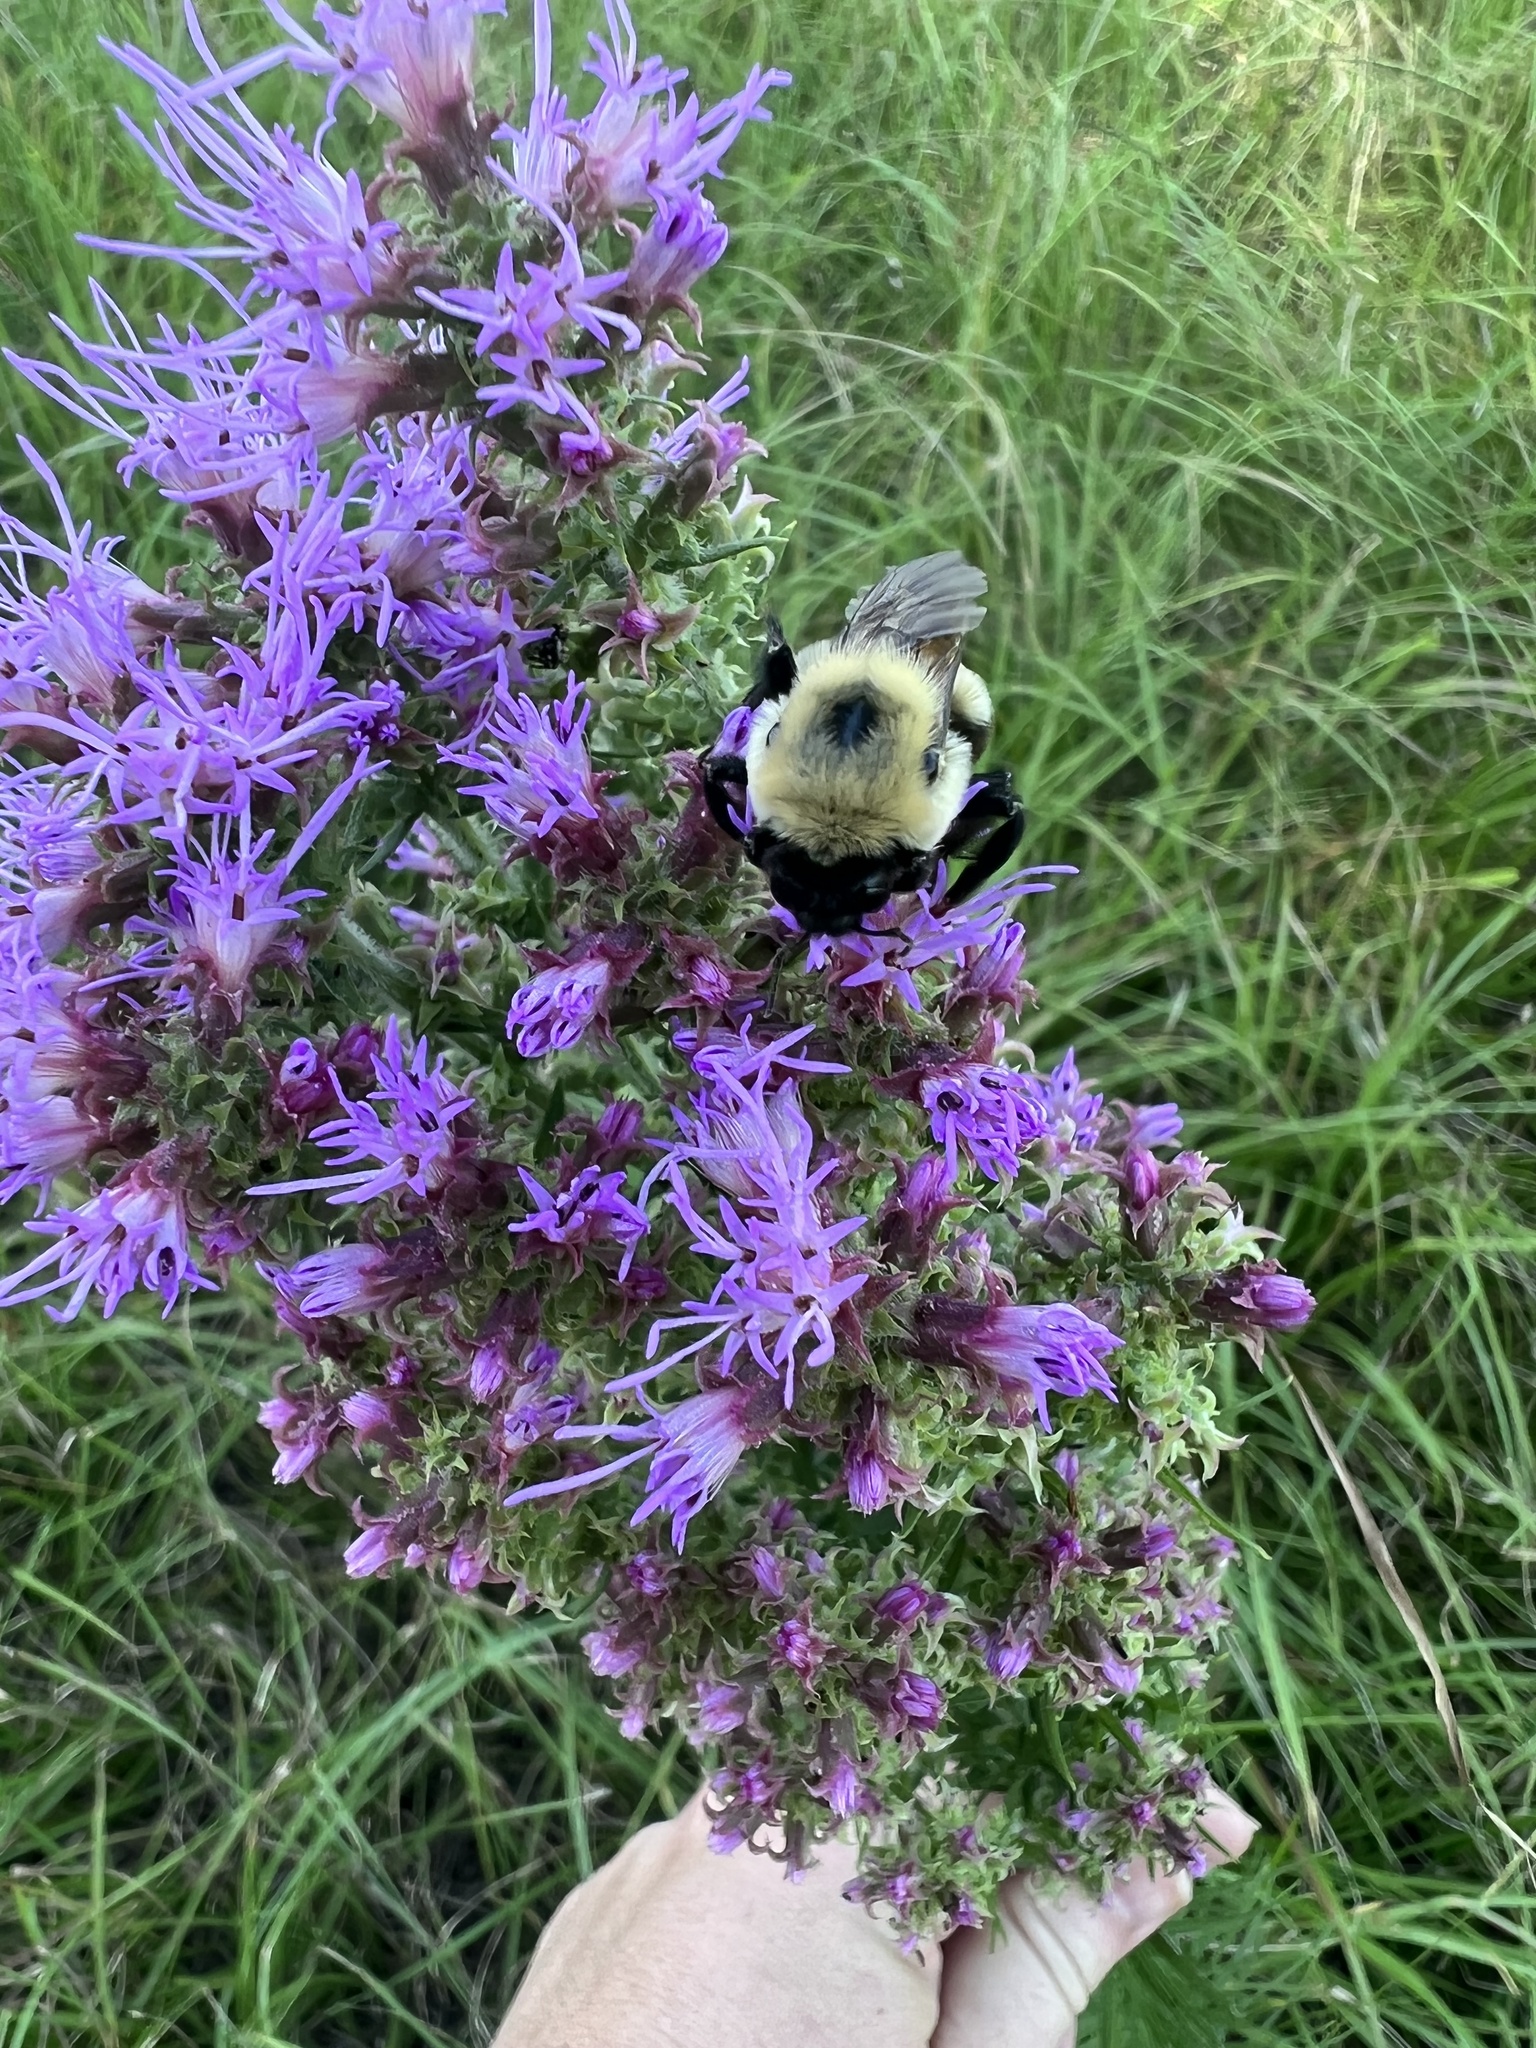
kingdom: Animalia
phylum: Arthropoda
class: Insecta
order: Hymenoptera
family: Apidae
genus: Bombus
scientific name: Bombus griseocollis
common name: Brown-belted bumble bee
